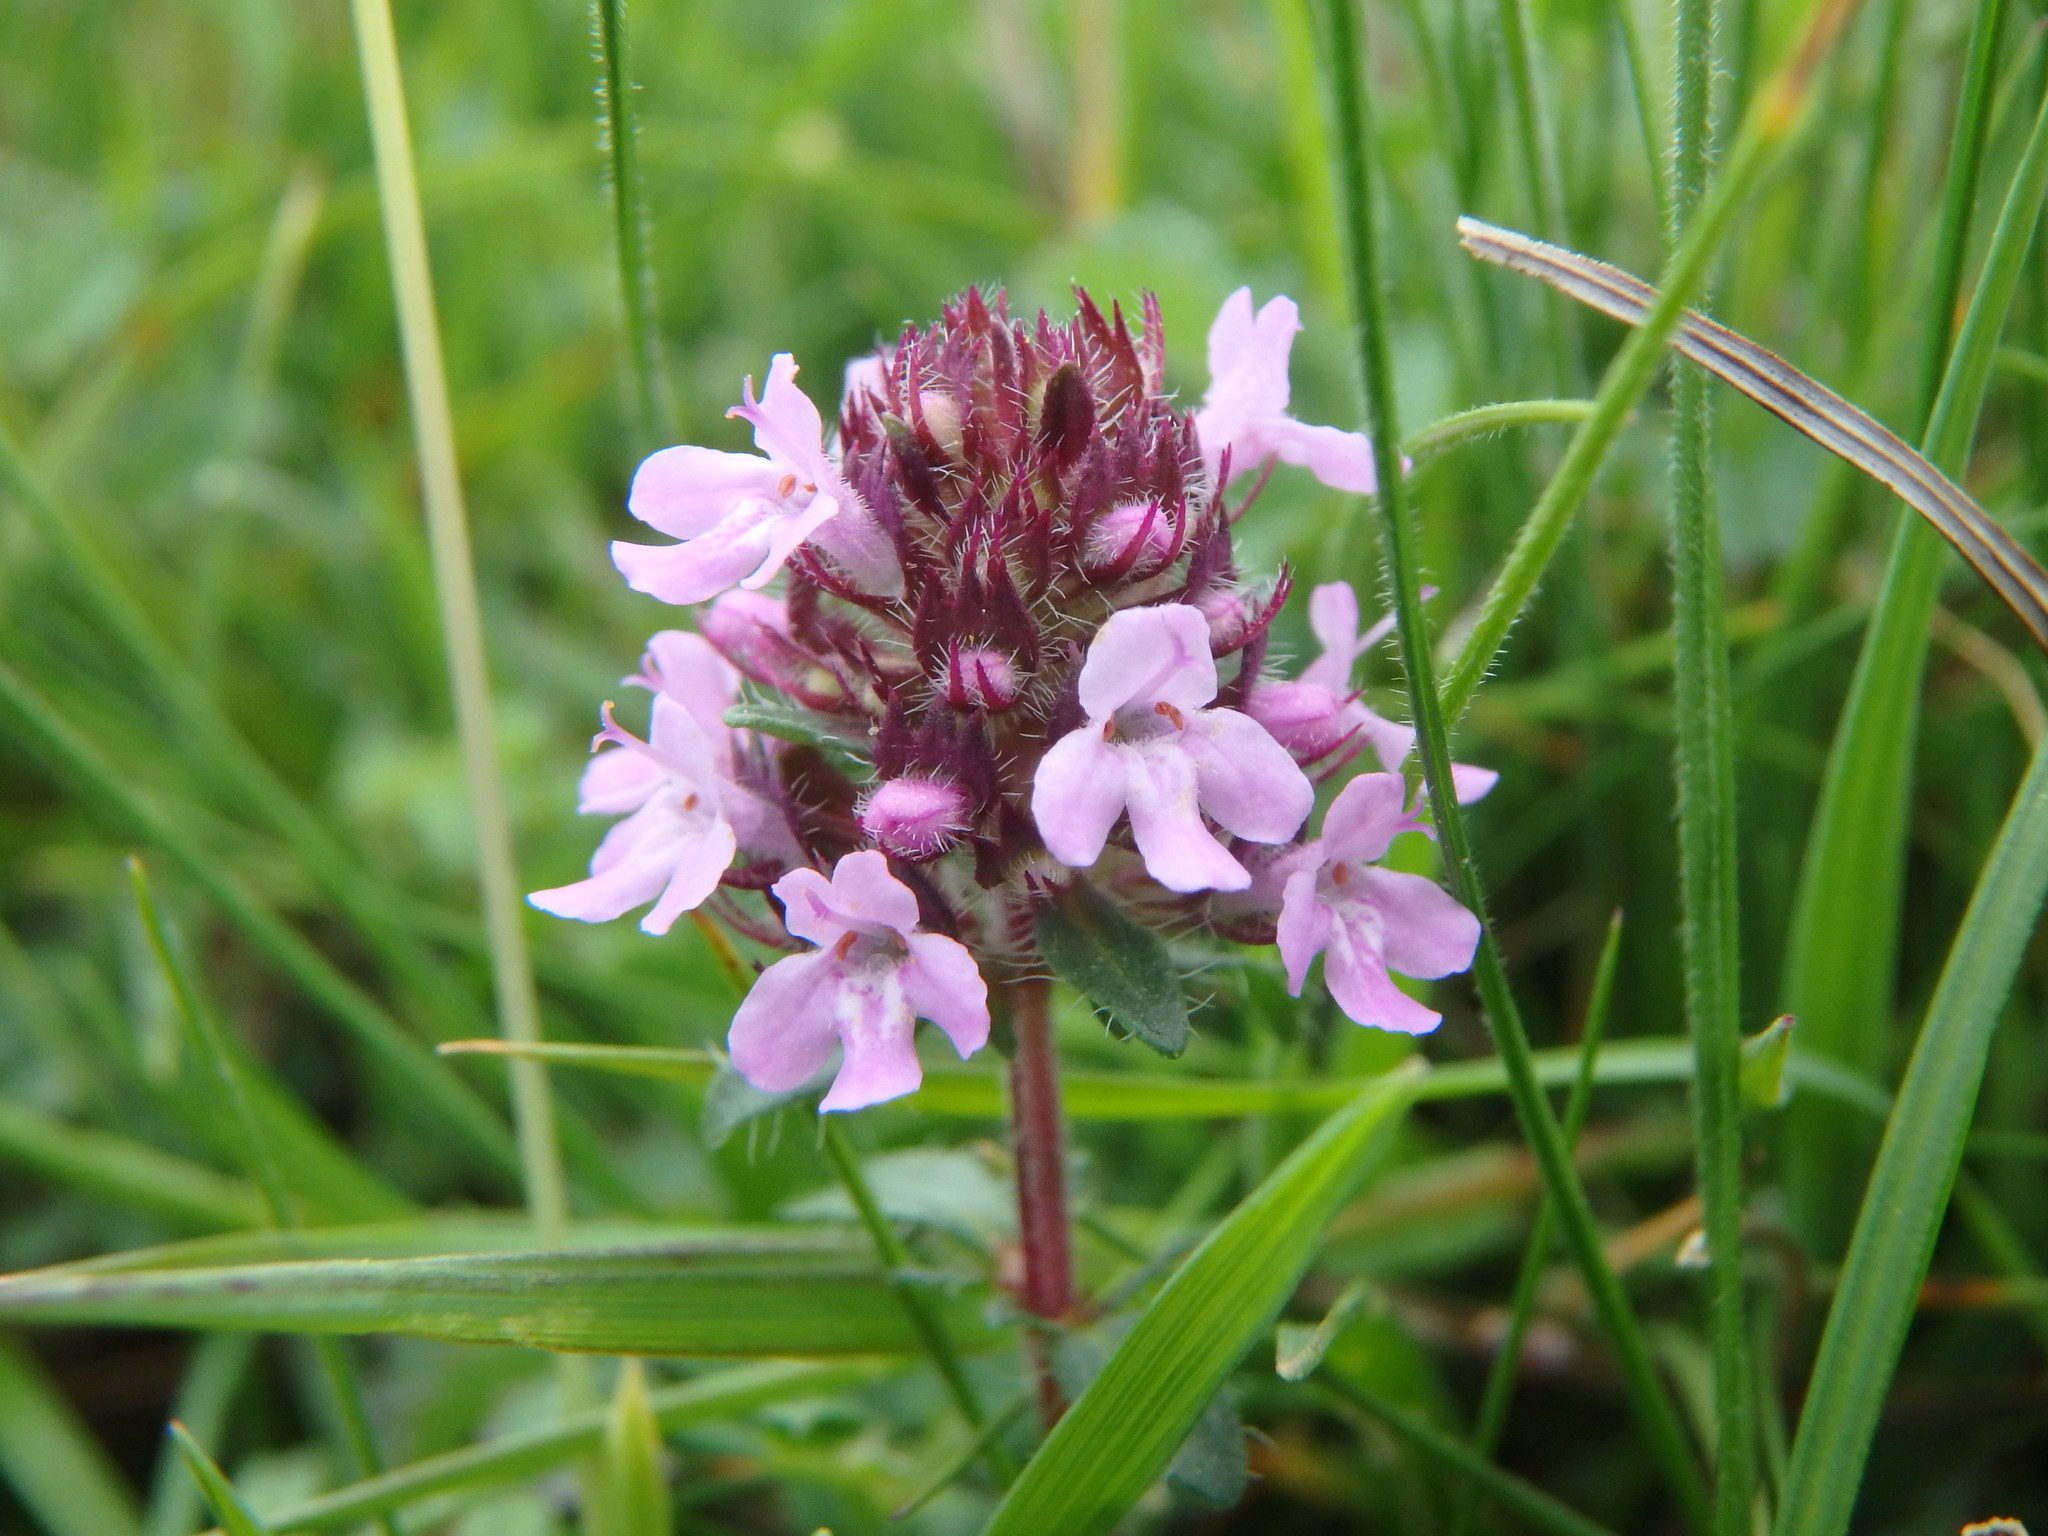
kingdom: Plantae
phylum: Tracheophyta
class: Magnoliopsida
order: Lamiales
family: Lamiaceae
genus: Thymus
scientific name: Thymus pulegioides
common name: Large thyme
